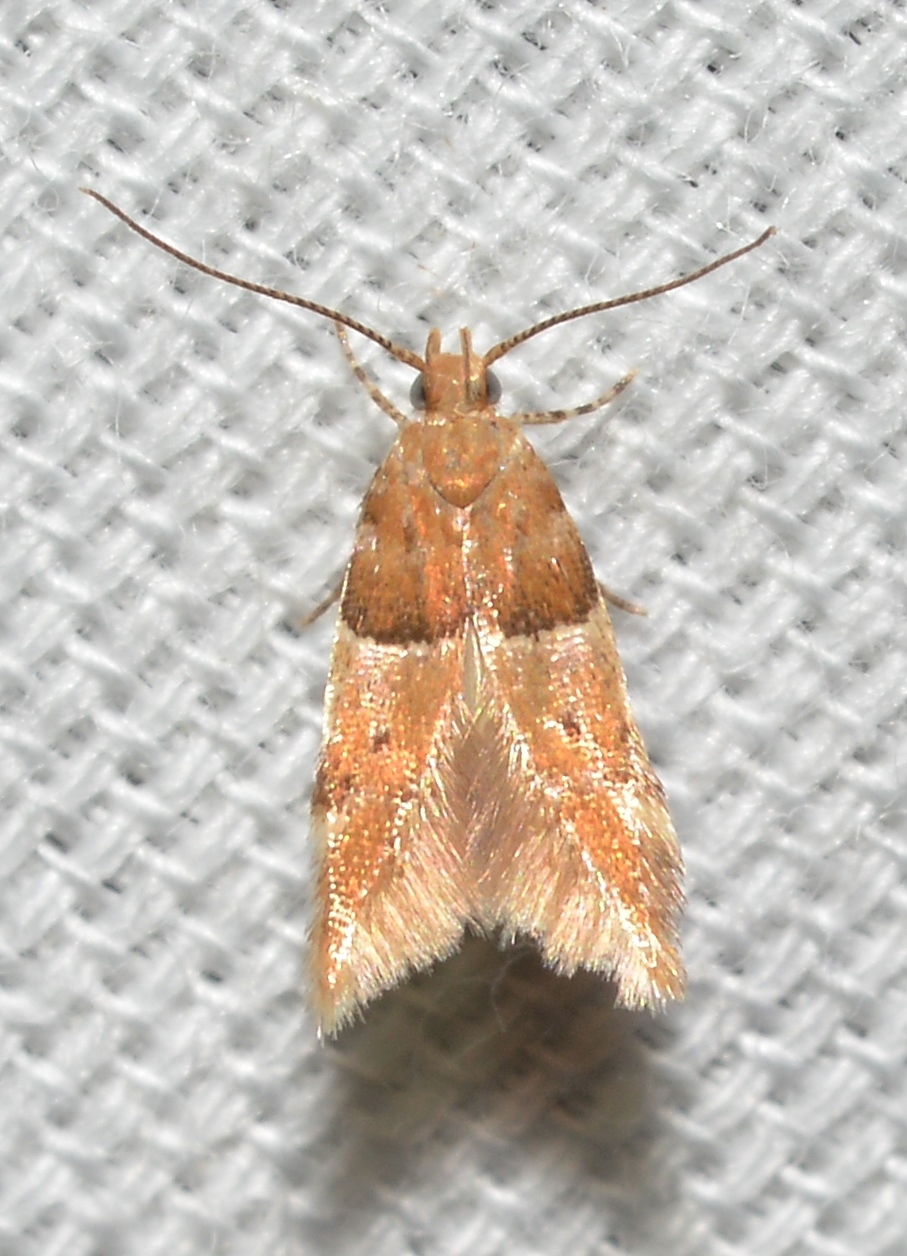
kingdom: Animalia
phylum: Arthropoda
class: Insecta
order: Lepidoptera
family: Gelechiidae
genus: Theisoa
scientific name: Theisoa constrictella
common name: Constricted twirler
